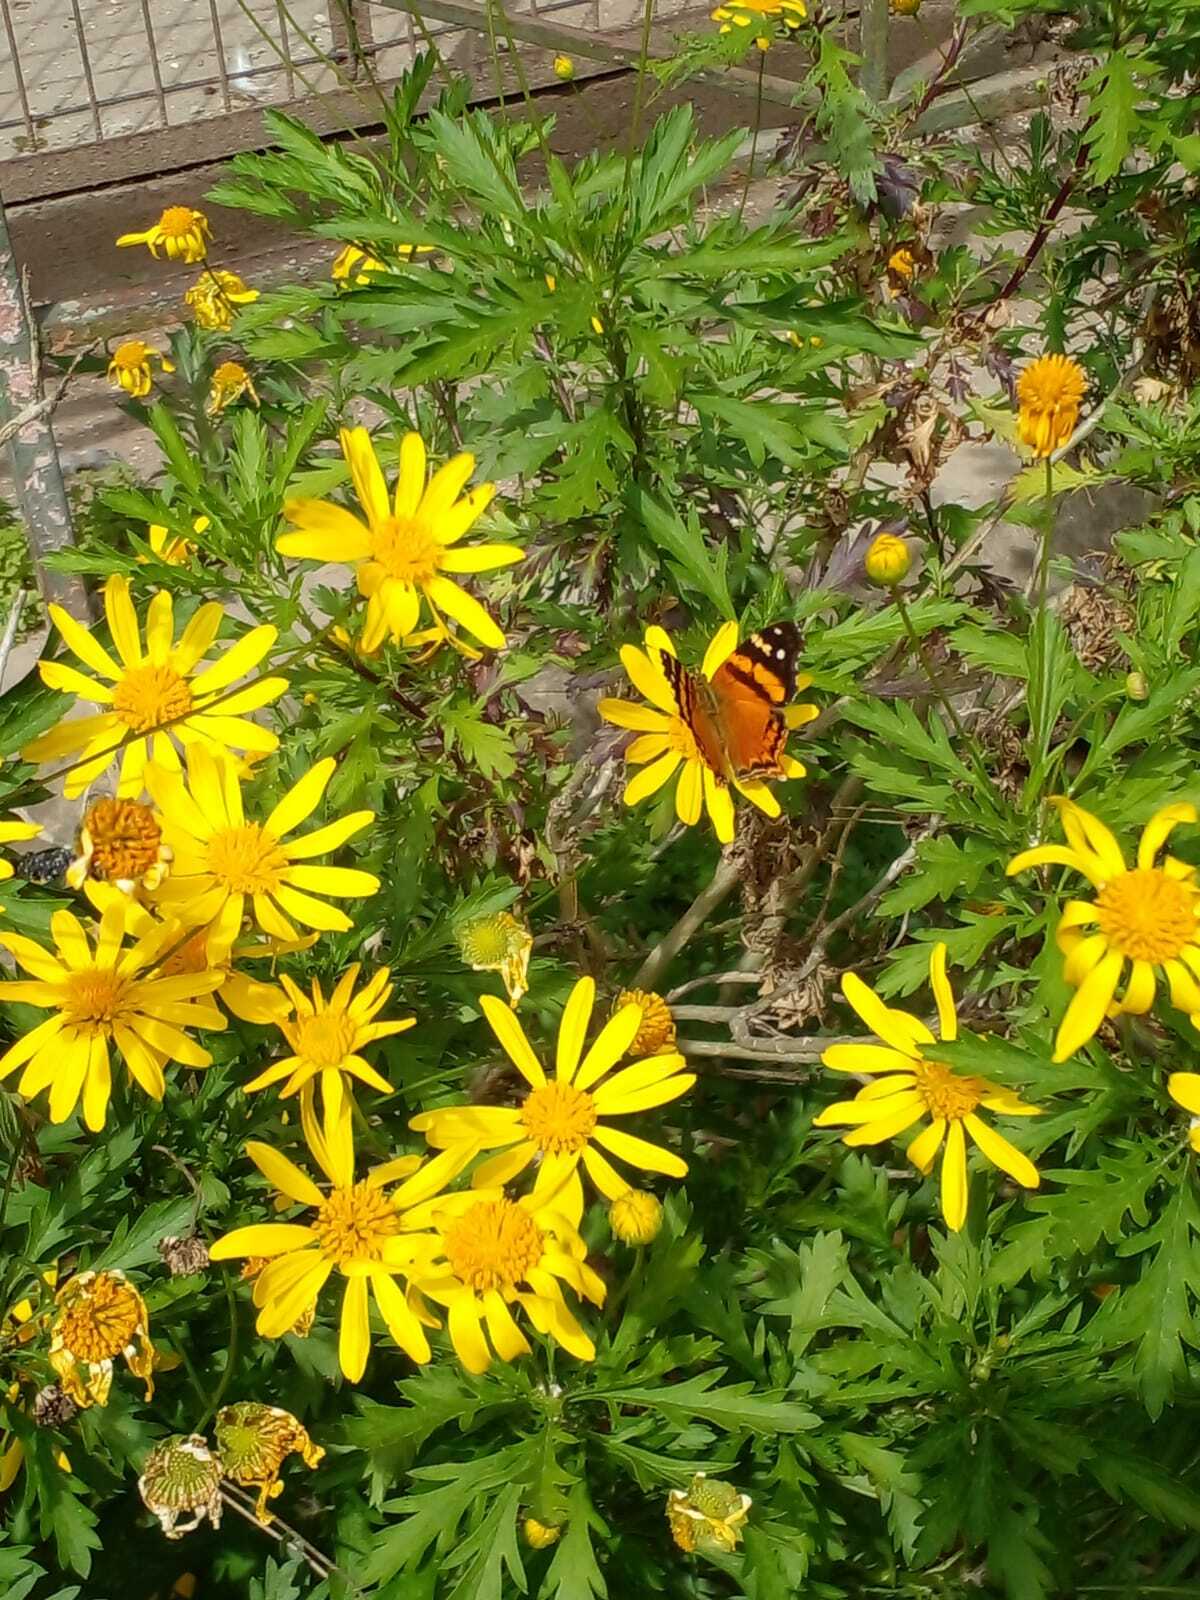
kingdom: Animalia
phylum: Arthropoda
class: Insecta
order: Lepidoptera
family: Nymphalidae
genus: Hypanartia
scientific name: Hypanartia bella
